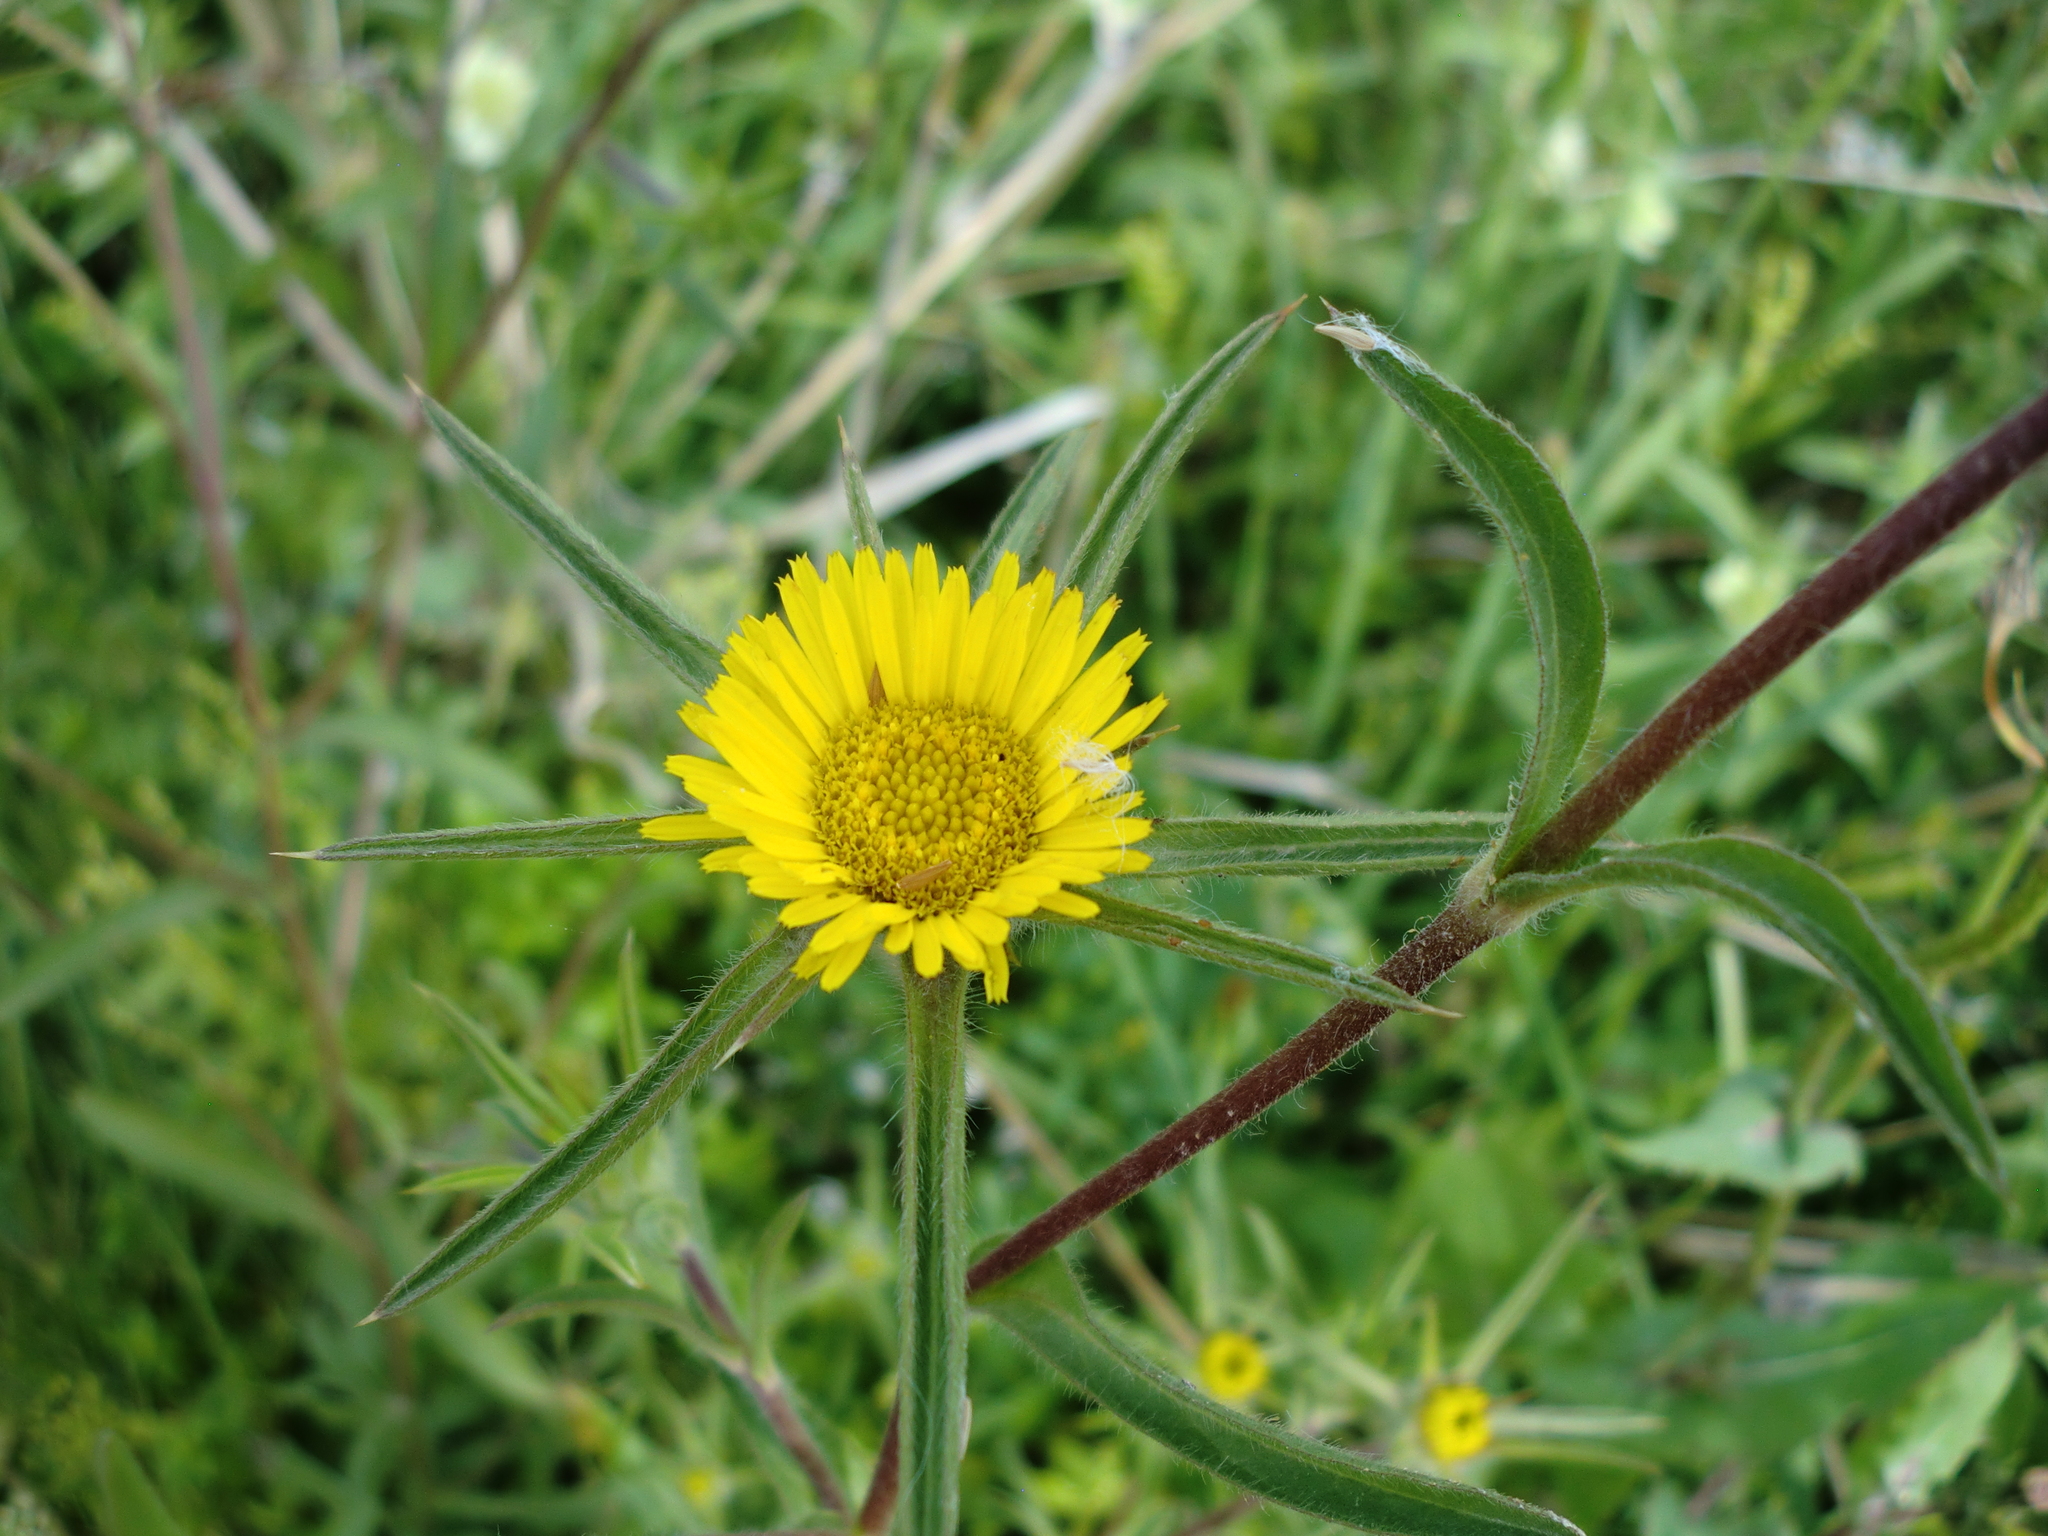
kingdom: Plantae
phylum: Tracheophyta
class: Magnoliopsida
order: Asterales
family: Asteraceae
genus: Pallenis
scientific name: Pallenis spinosa
